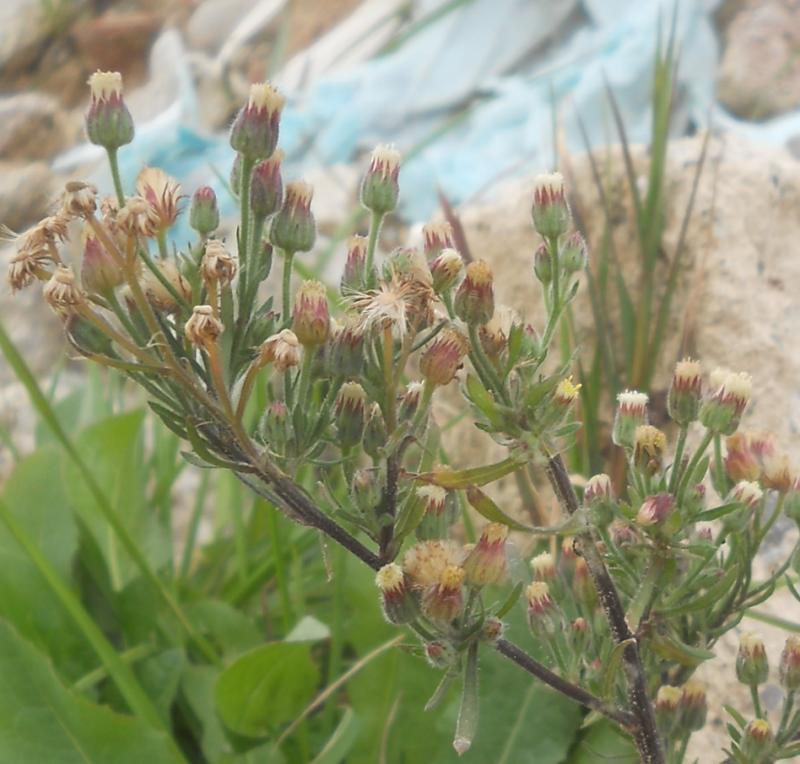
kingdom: Plantae
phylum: Tracheophyta
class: Magnoliopsida
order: Asterales
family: Asteraceae
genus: Erigeron
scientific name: Erigeron bonariensis
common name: Argentine fleabane
